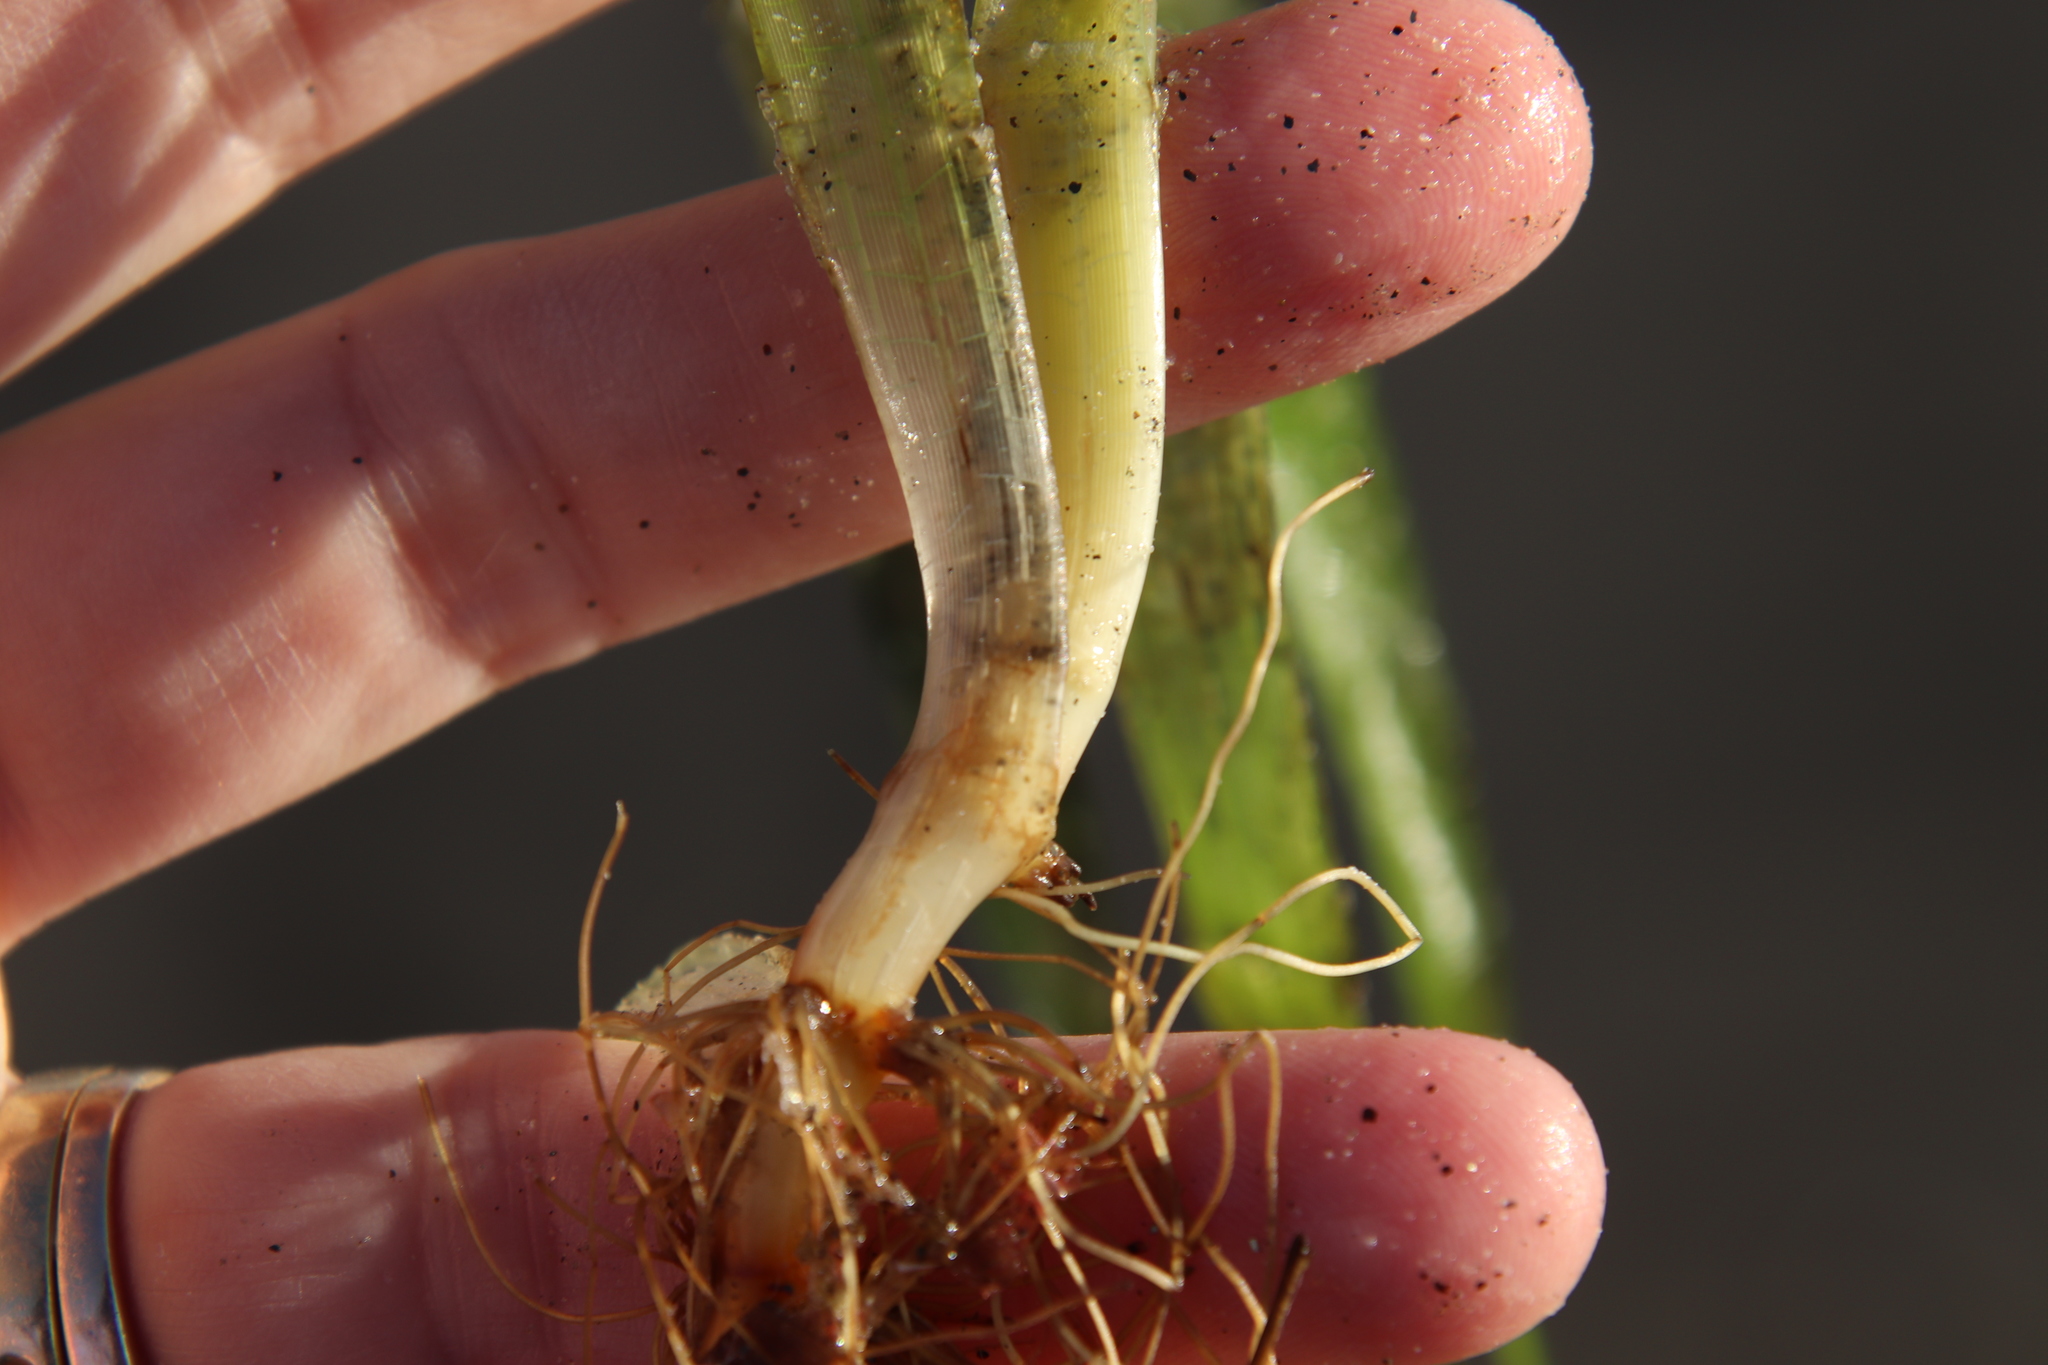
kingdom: Plantae
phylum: Tracheophyta
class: Liliopsida
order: Alismatales
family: Zosteraceae
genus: Zostera
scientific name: Zostera marina
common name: Eelgrass
